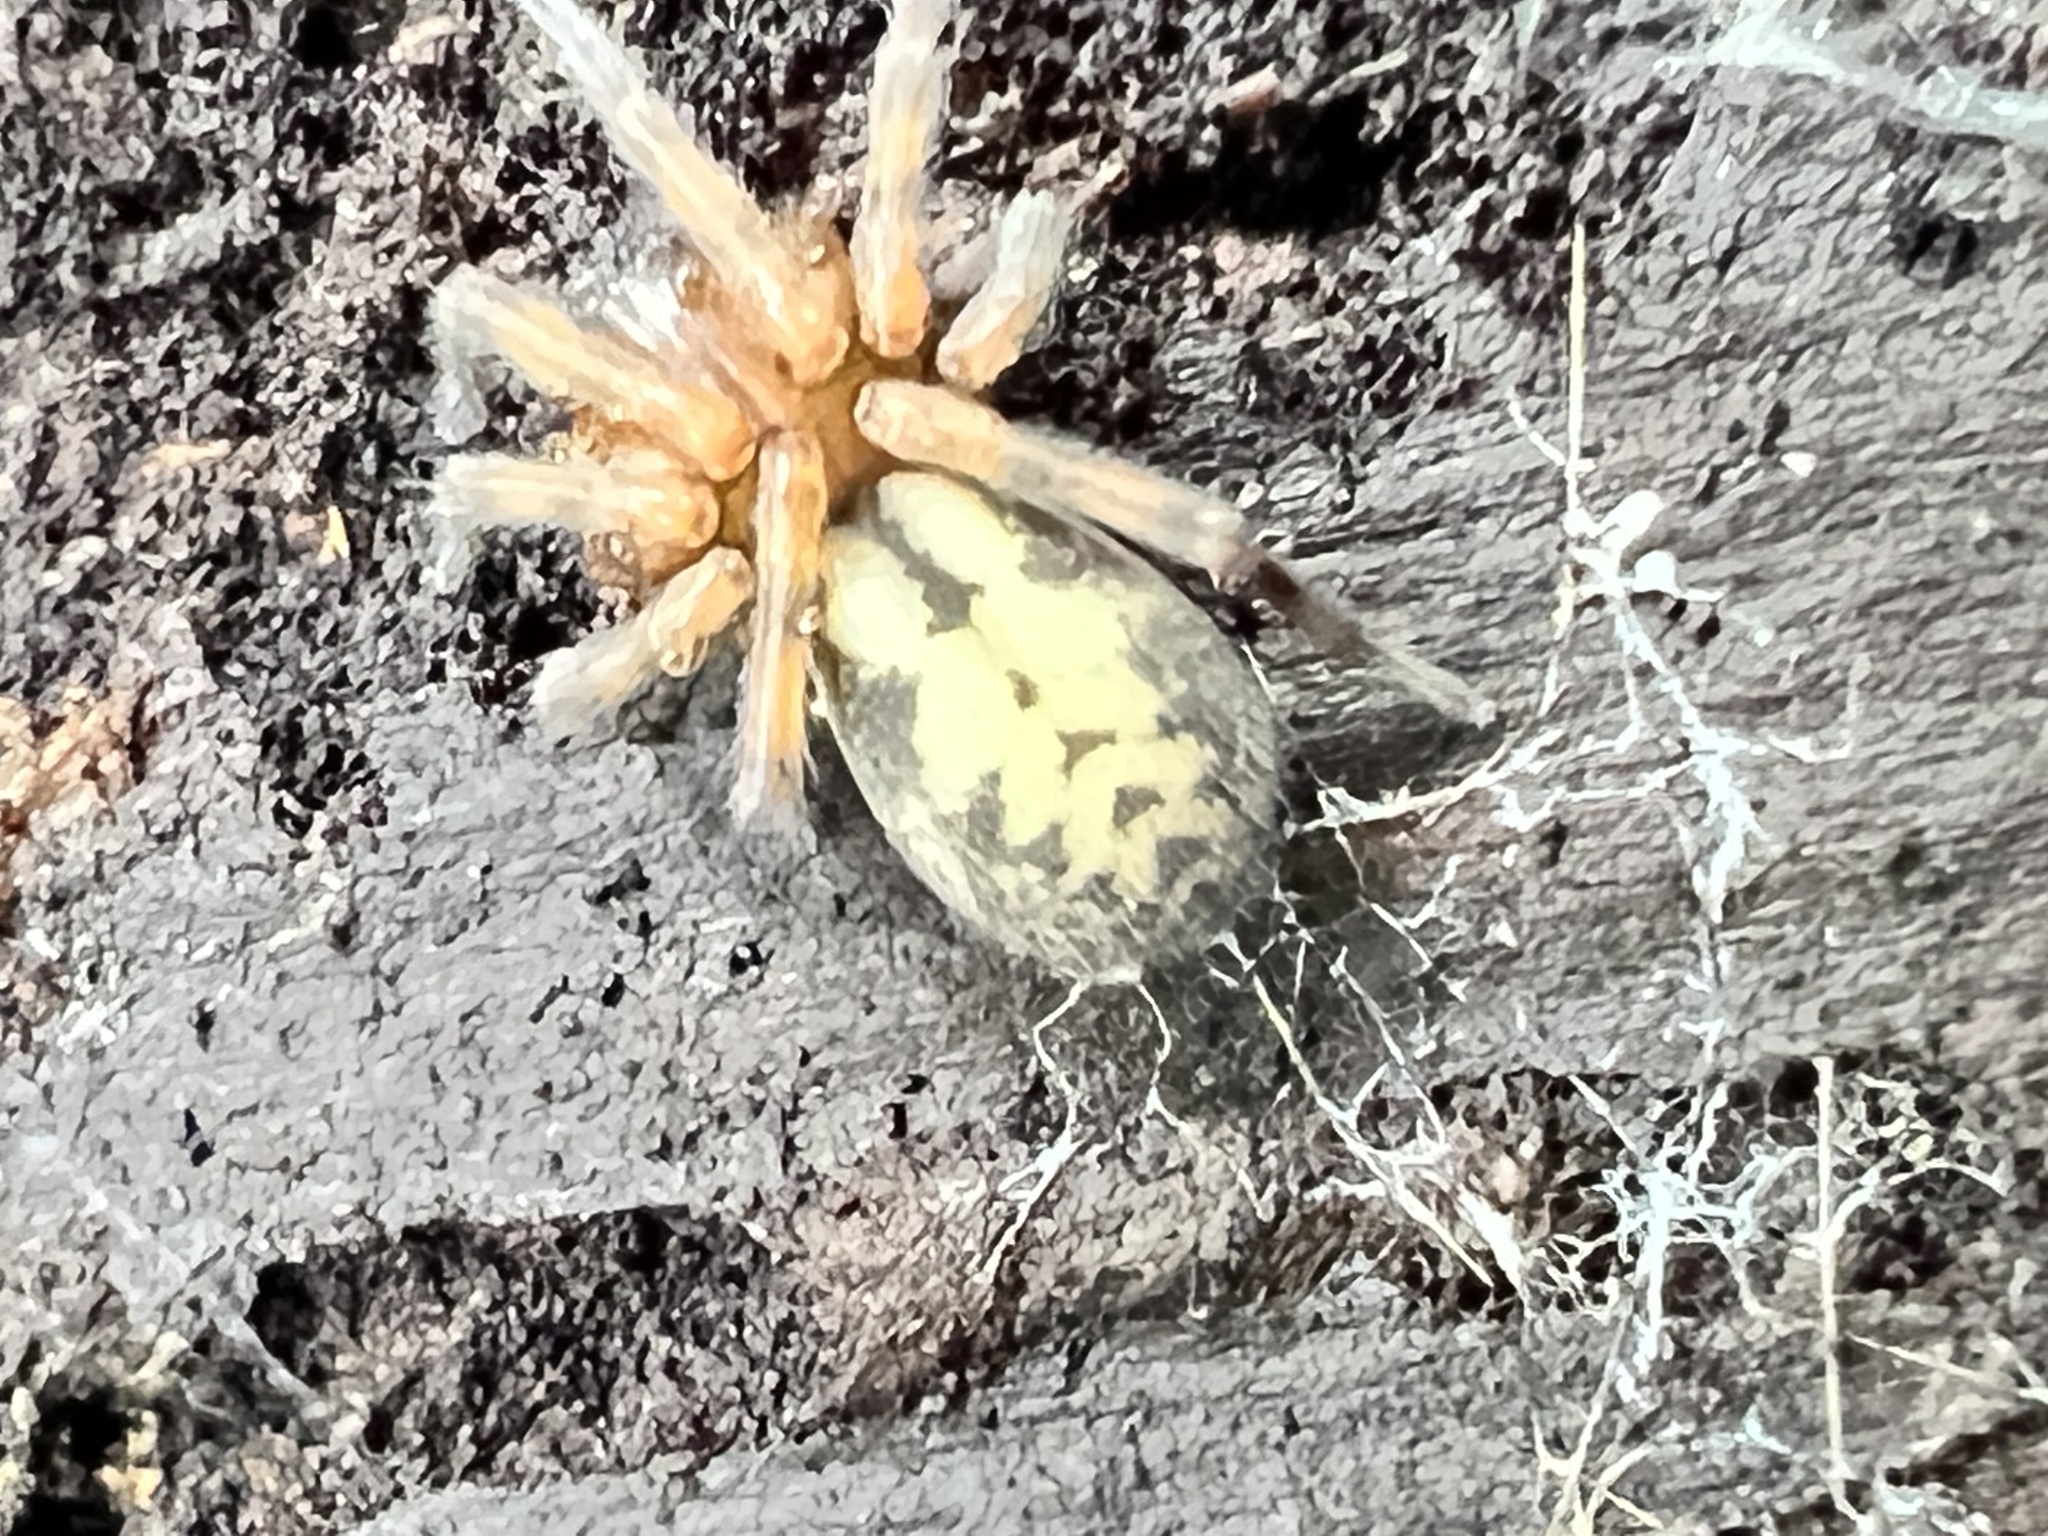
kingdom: Animalia
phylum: Arthropoda
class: Arachnida
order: Araneae
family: Amaurobiidae
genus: Callobius
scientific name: Callobius pictus
